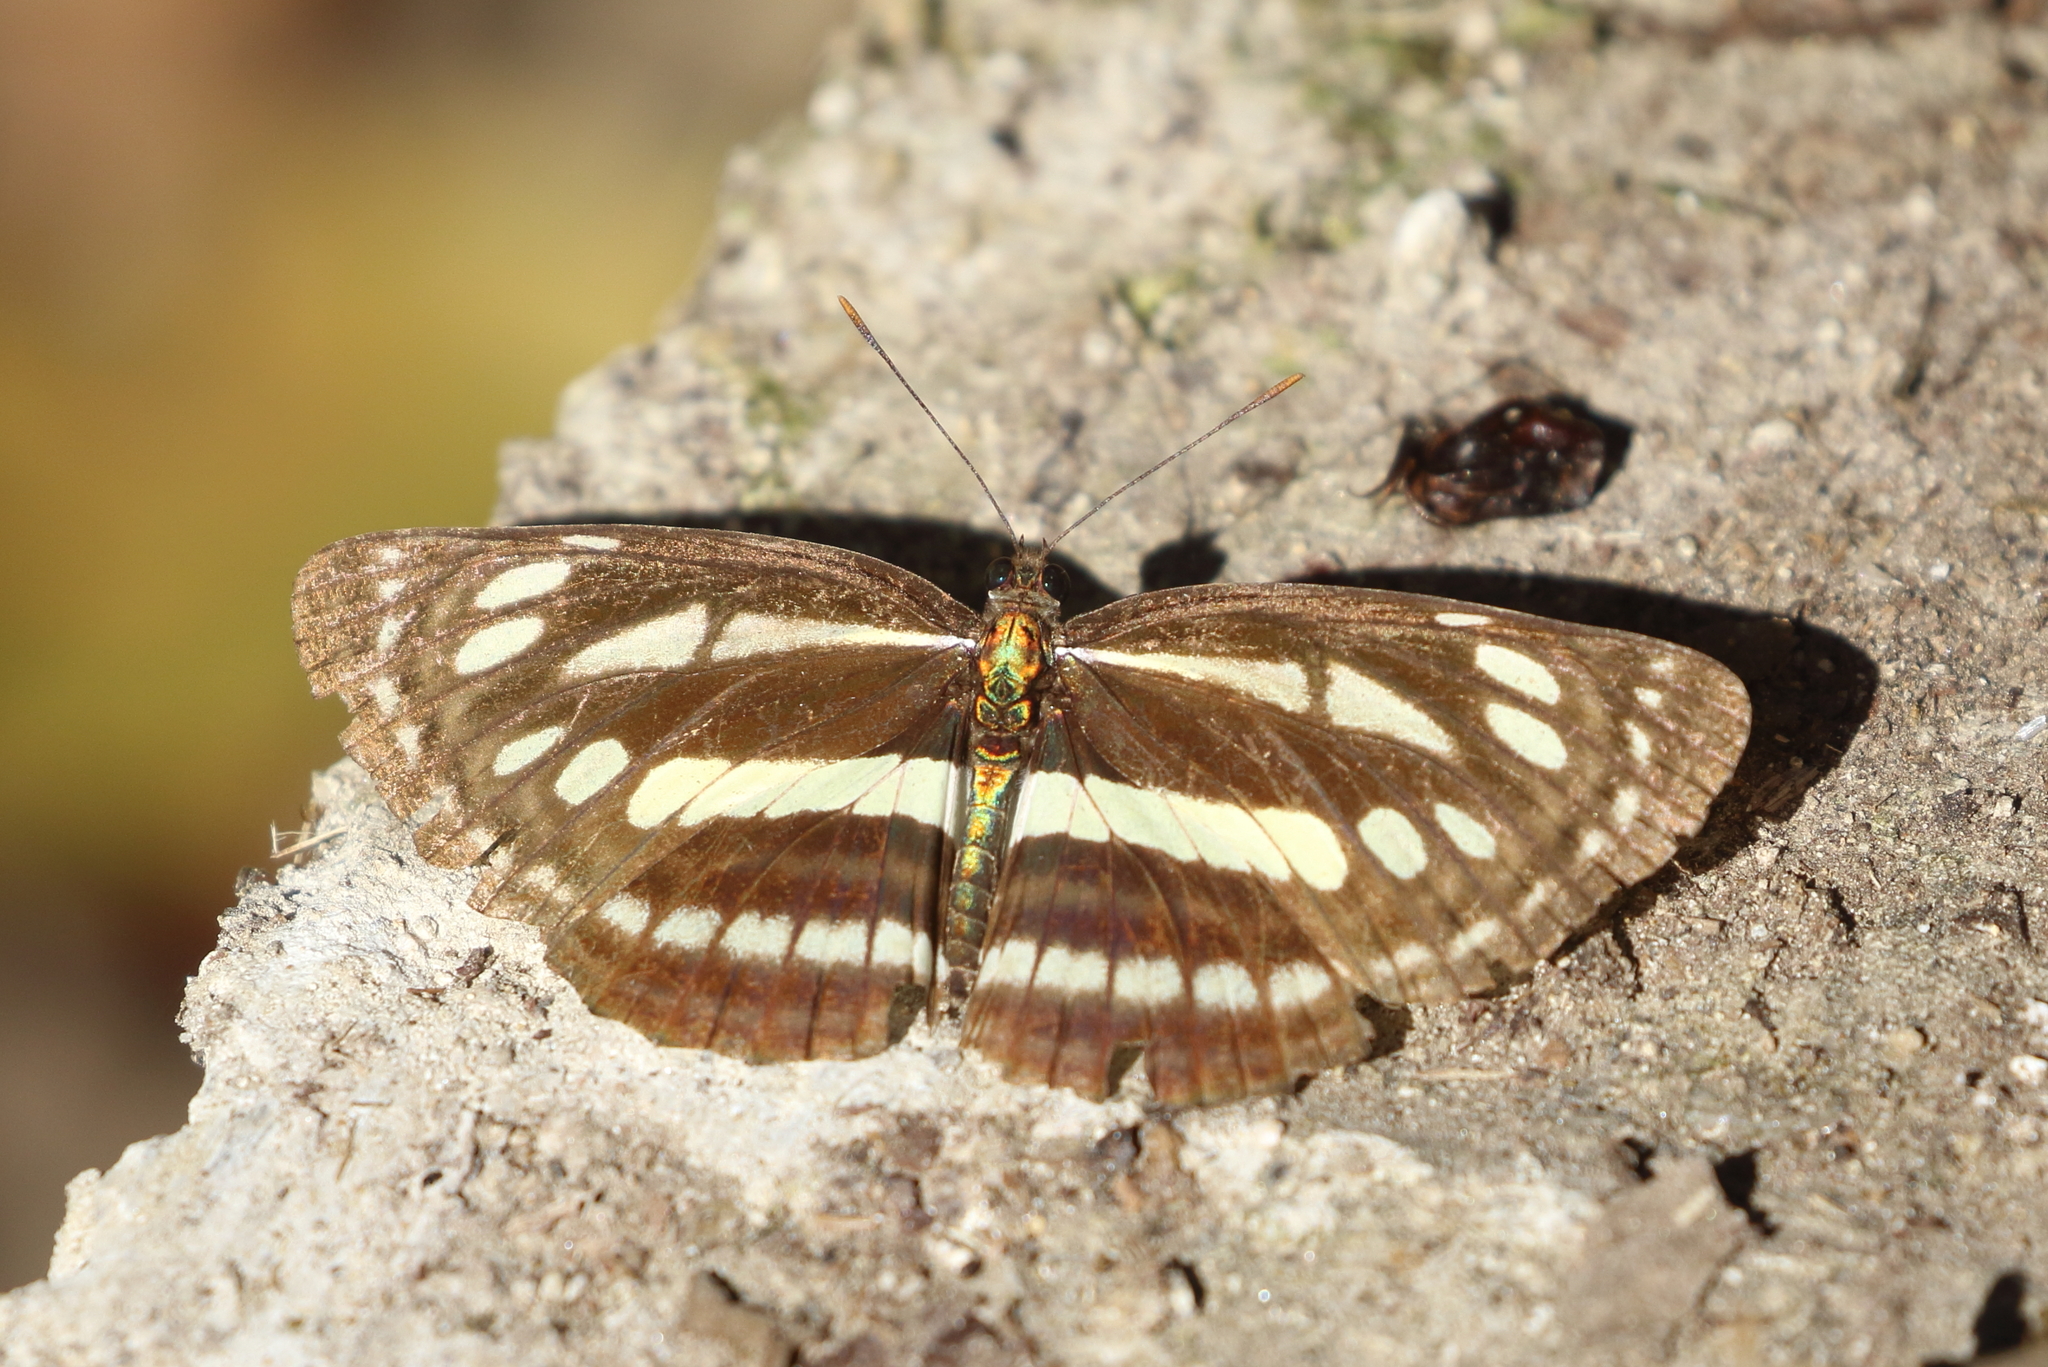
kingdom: Animalia
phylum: Arthropoda
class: Insecta
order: Lepidoptera
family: Nymphalidae
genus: Neptis
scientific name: Neptis soma
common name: Cream-spotted sailor
